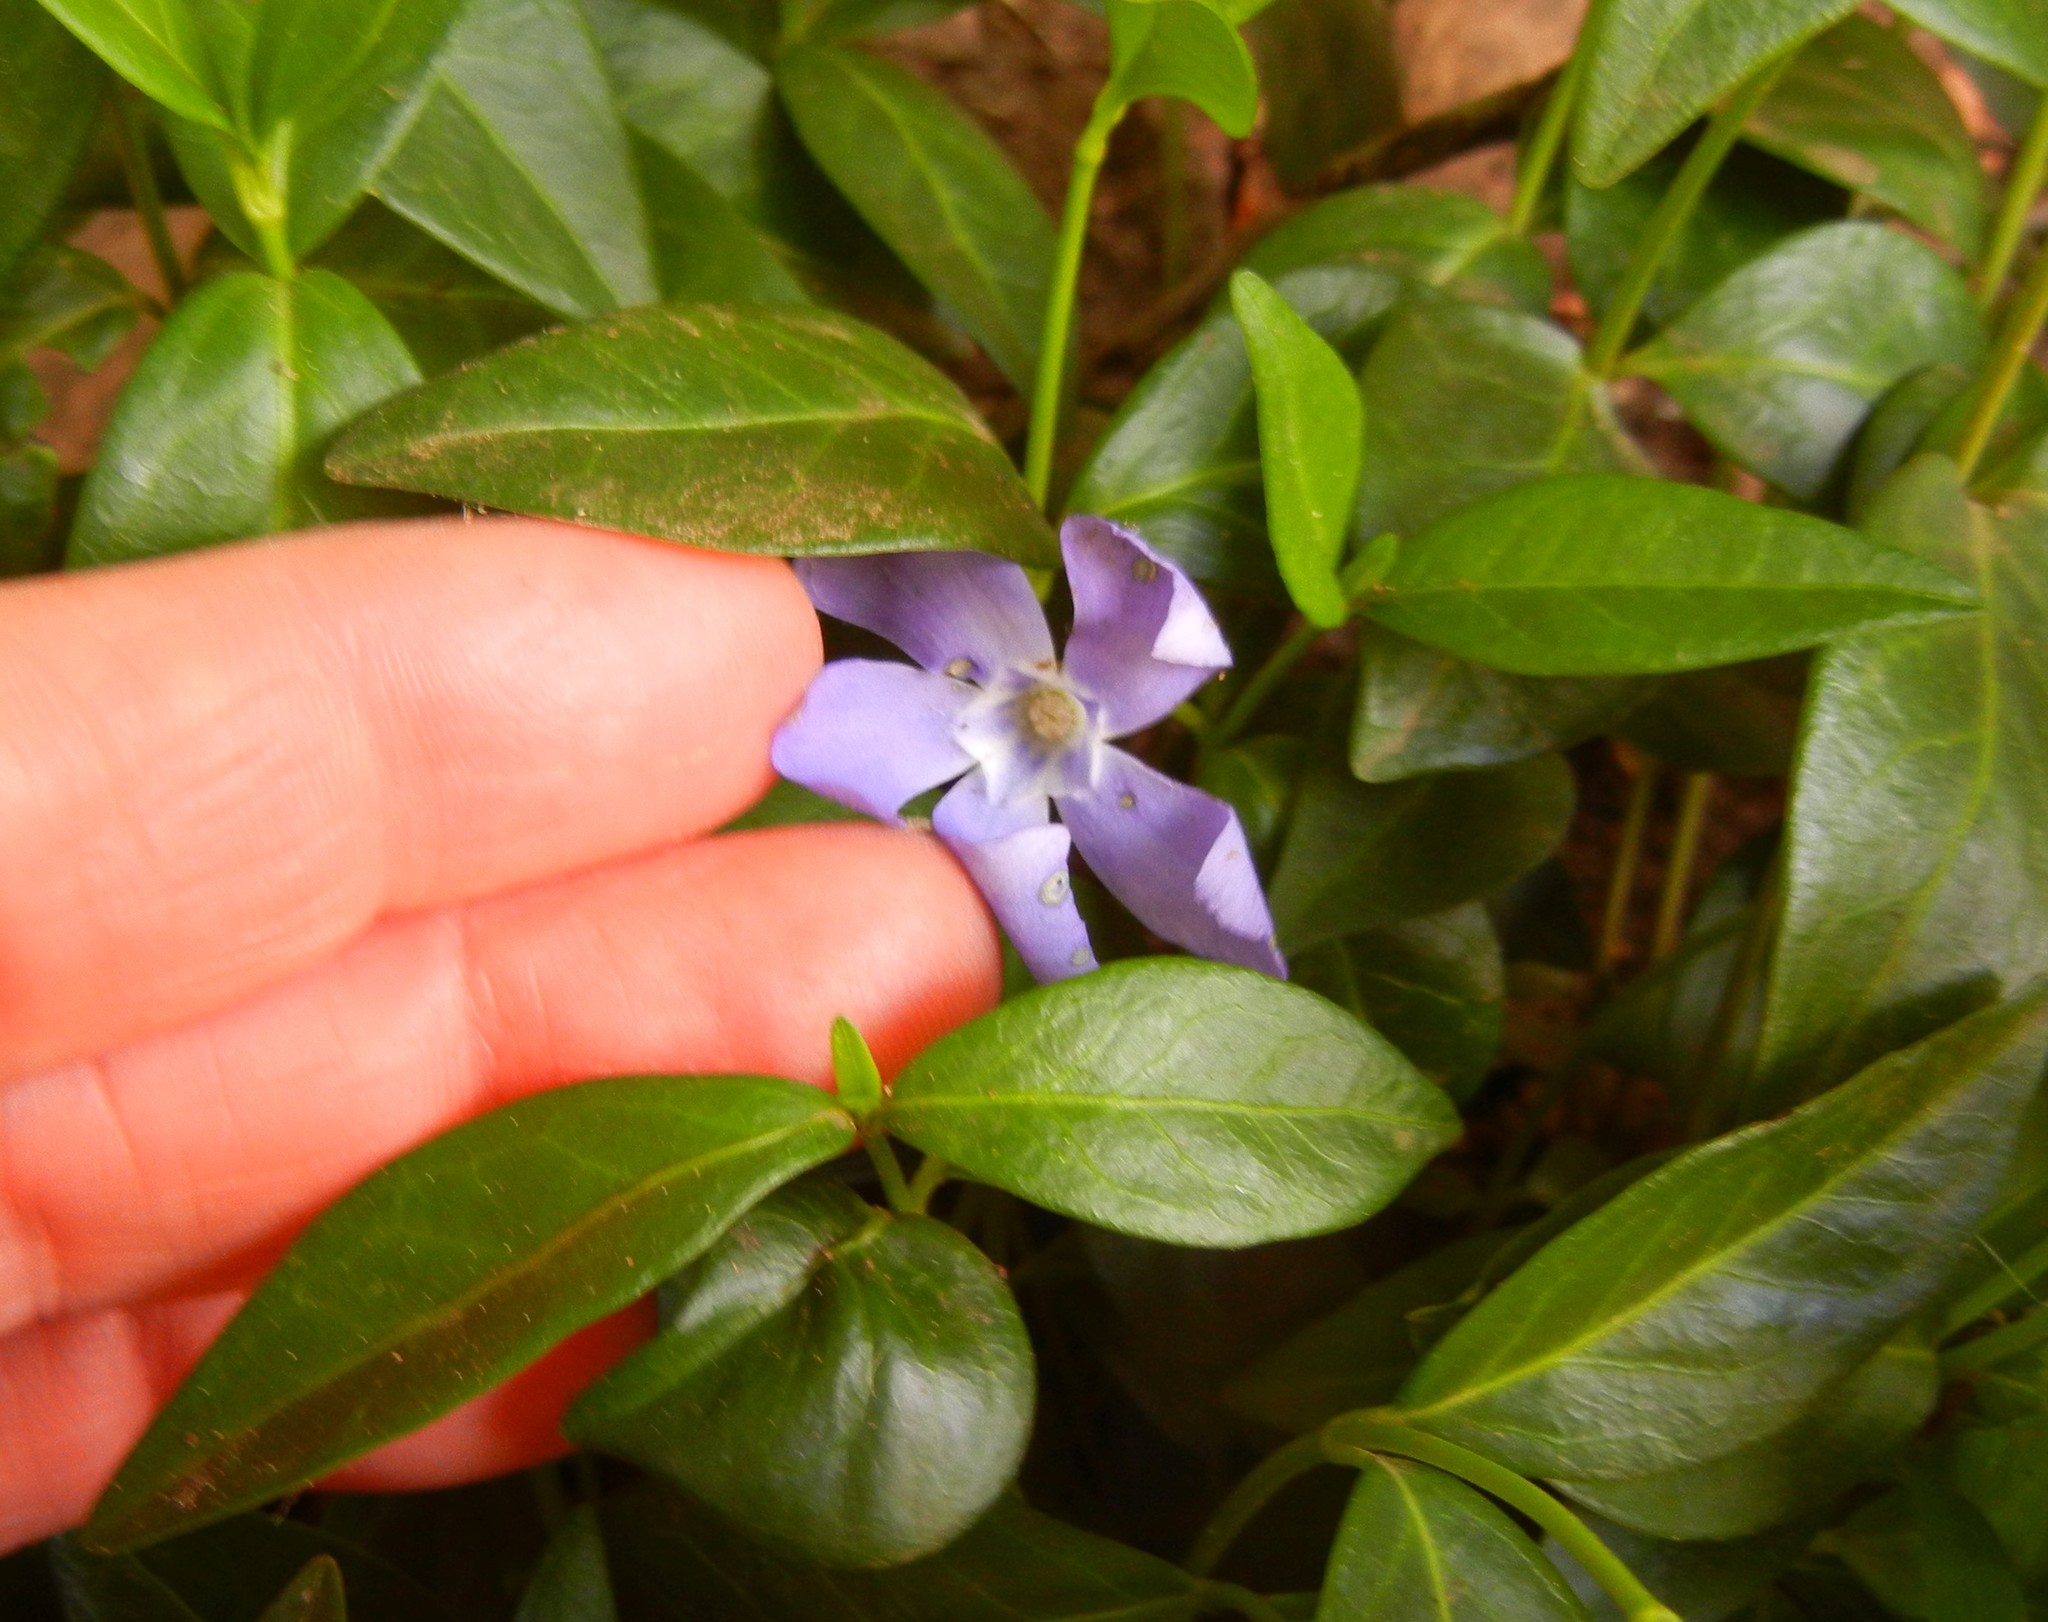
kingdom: Plantae
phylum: Tracheophyta
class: Magnoliopsida
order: Gentianales
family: Apocynaceae
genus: Vinca
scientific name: Vinca minor
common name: Lesser periwinkle
